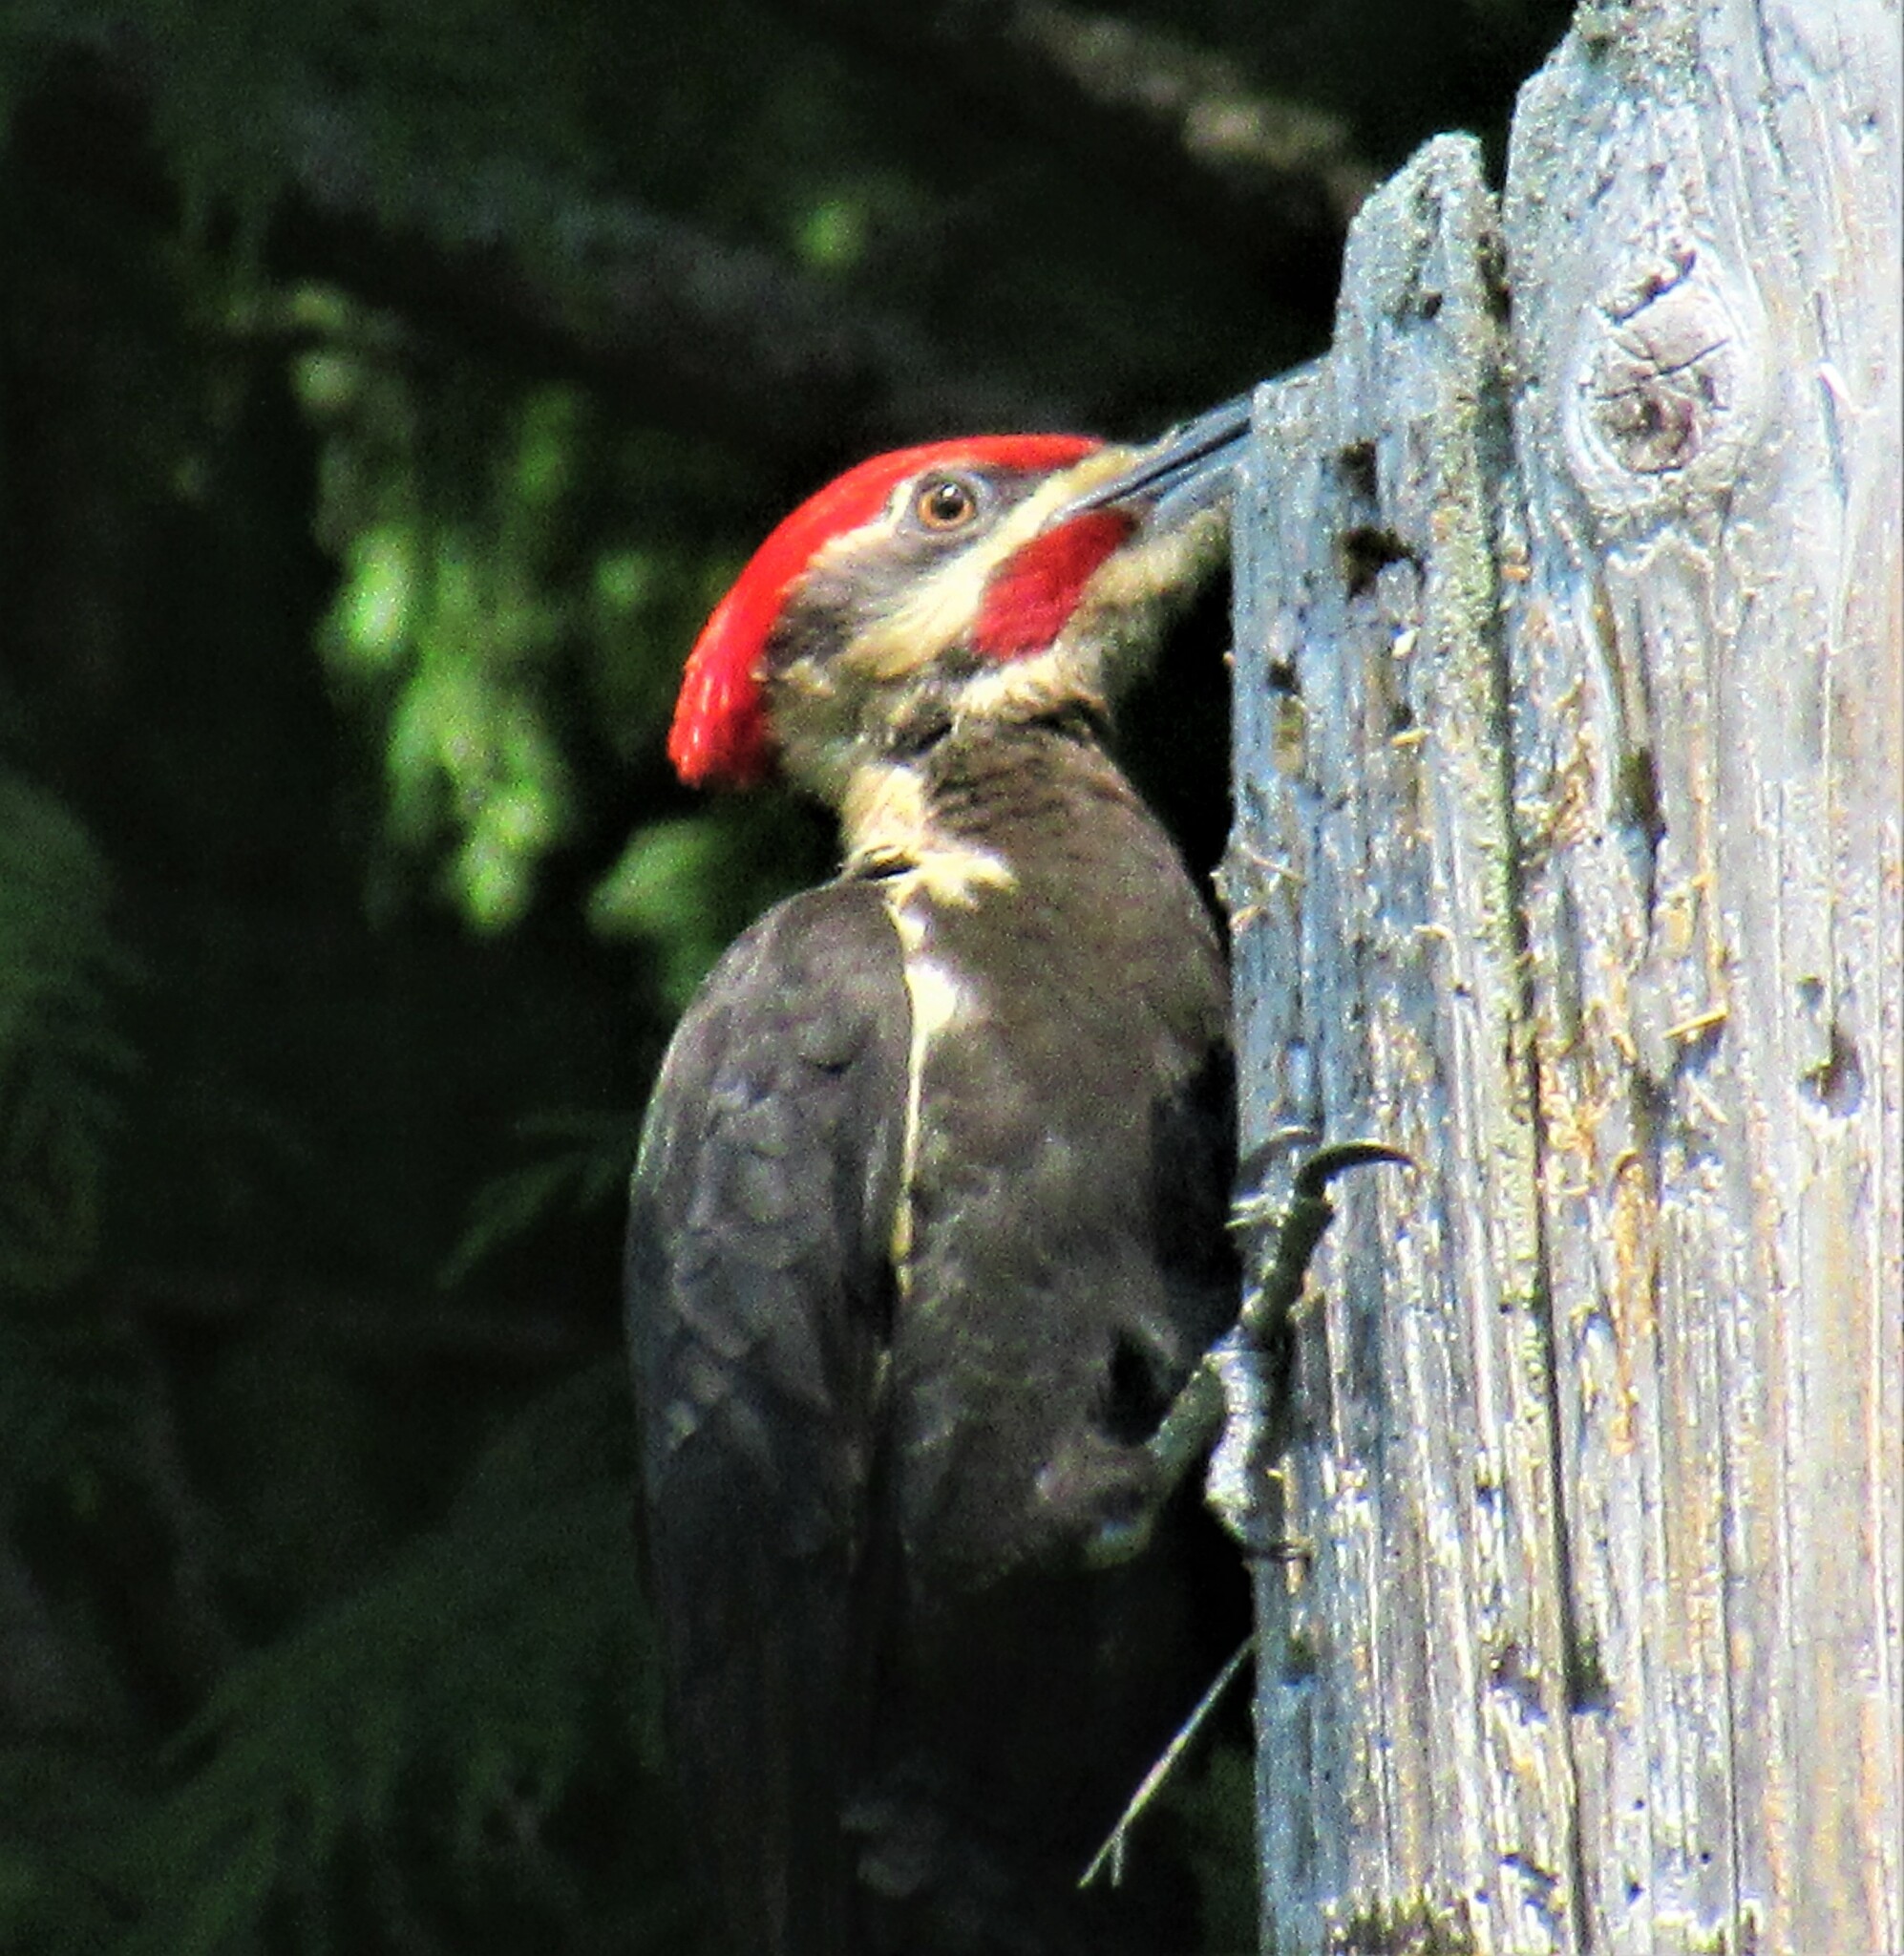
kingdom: Animalia
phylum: Chordata
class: Aves
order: Piciformes
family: Picidae
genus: Dryocopus
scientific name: Dryocopus pileatus
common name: Pileated woodpecker
